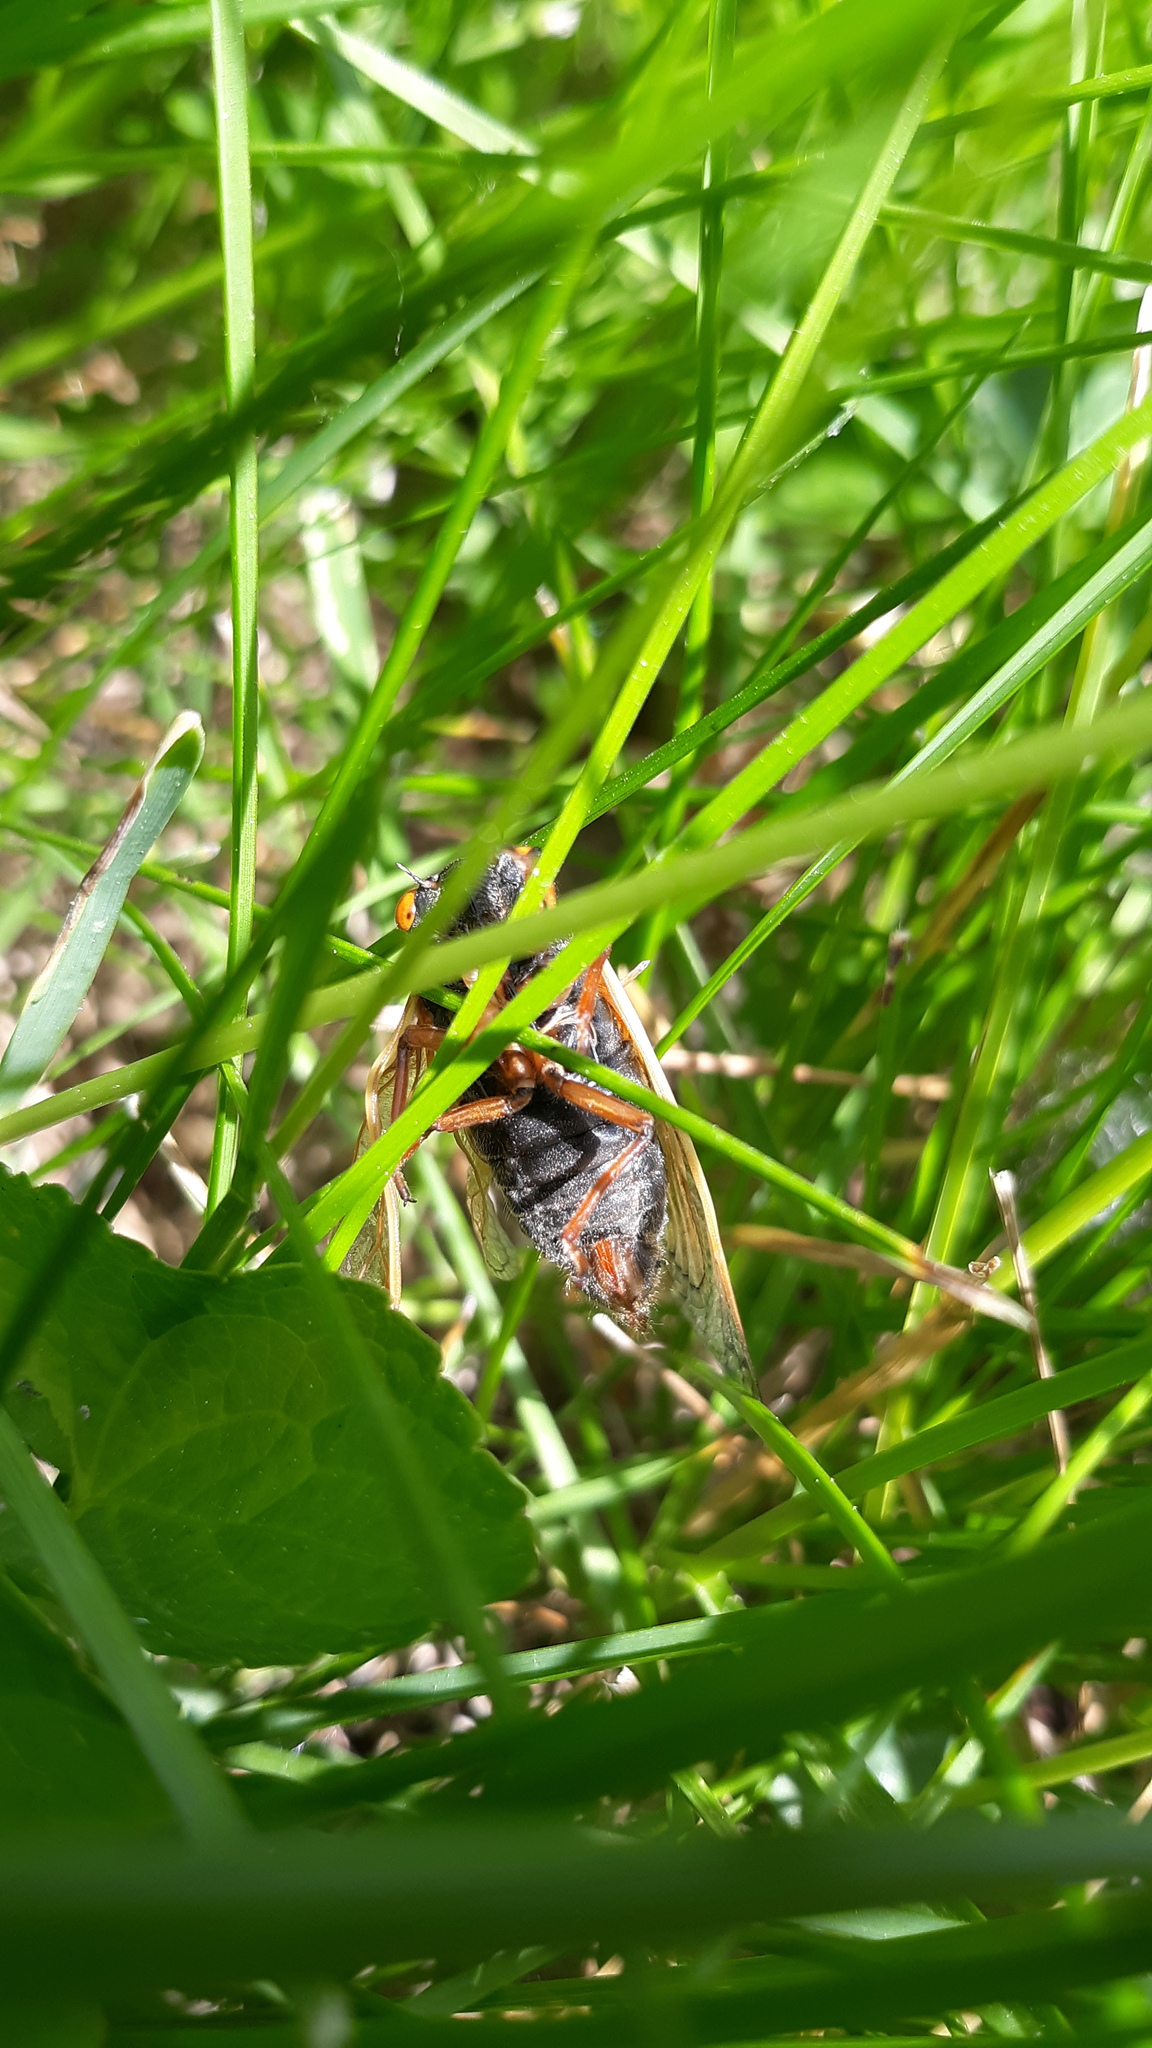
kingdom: Animalia
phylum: Arthropoda
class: Insecta
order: Hemiptera
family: Cicadidae
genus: Magicicada
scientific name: Magicicada cassini
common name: Cassin's 17-year cicada
